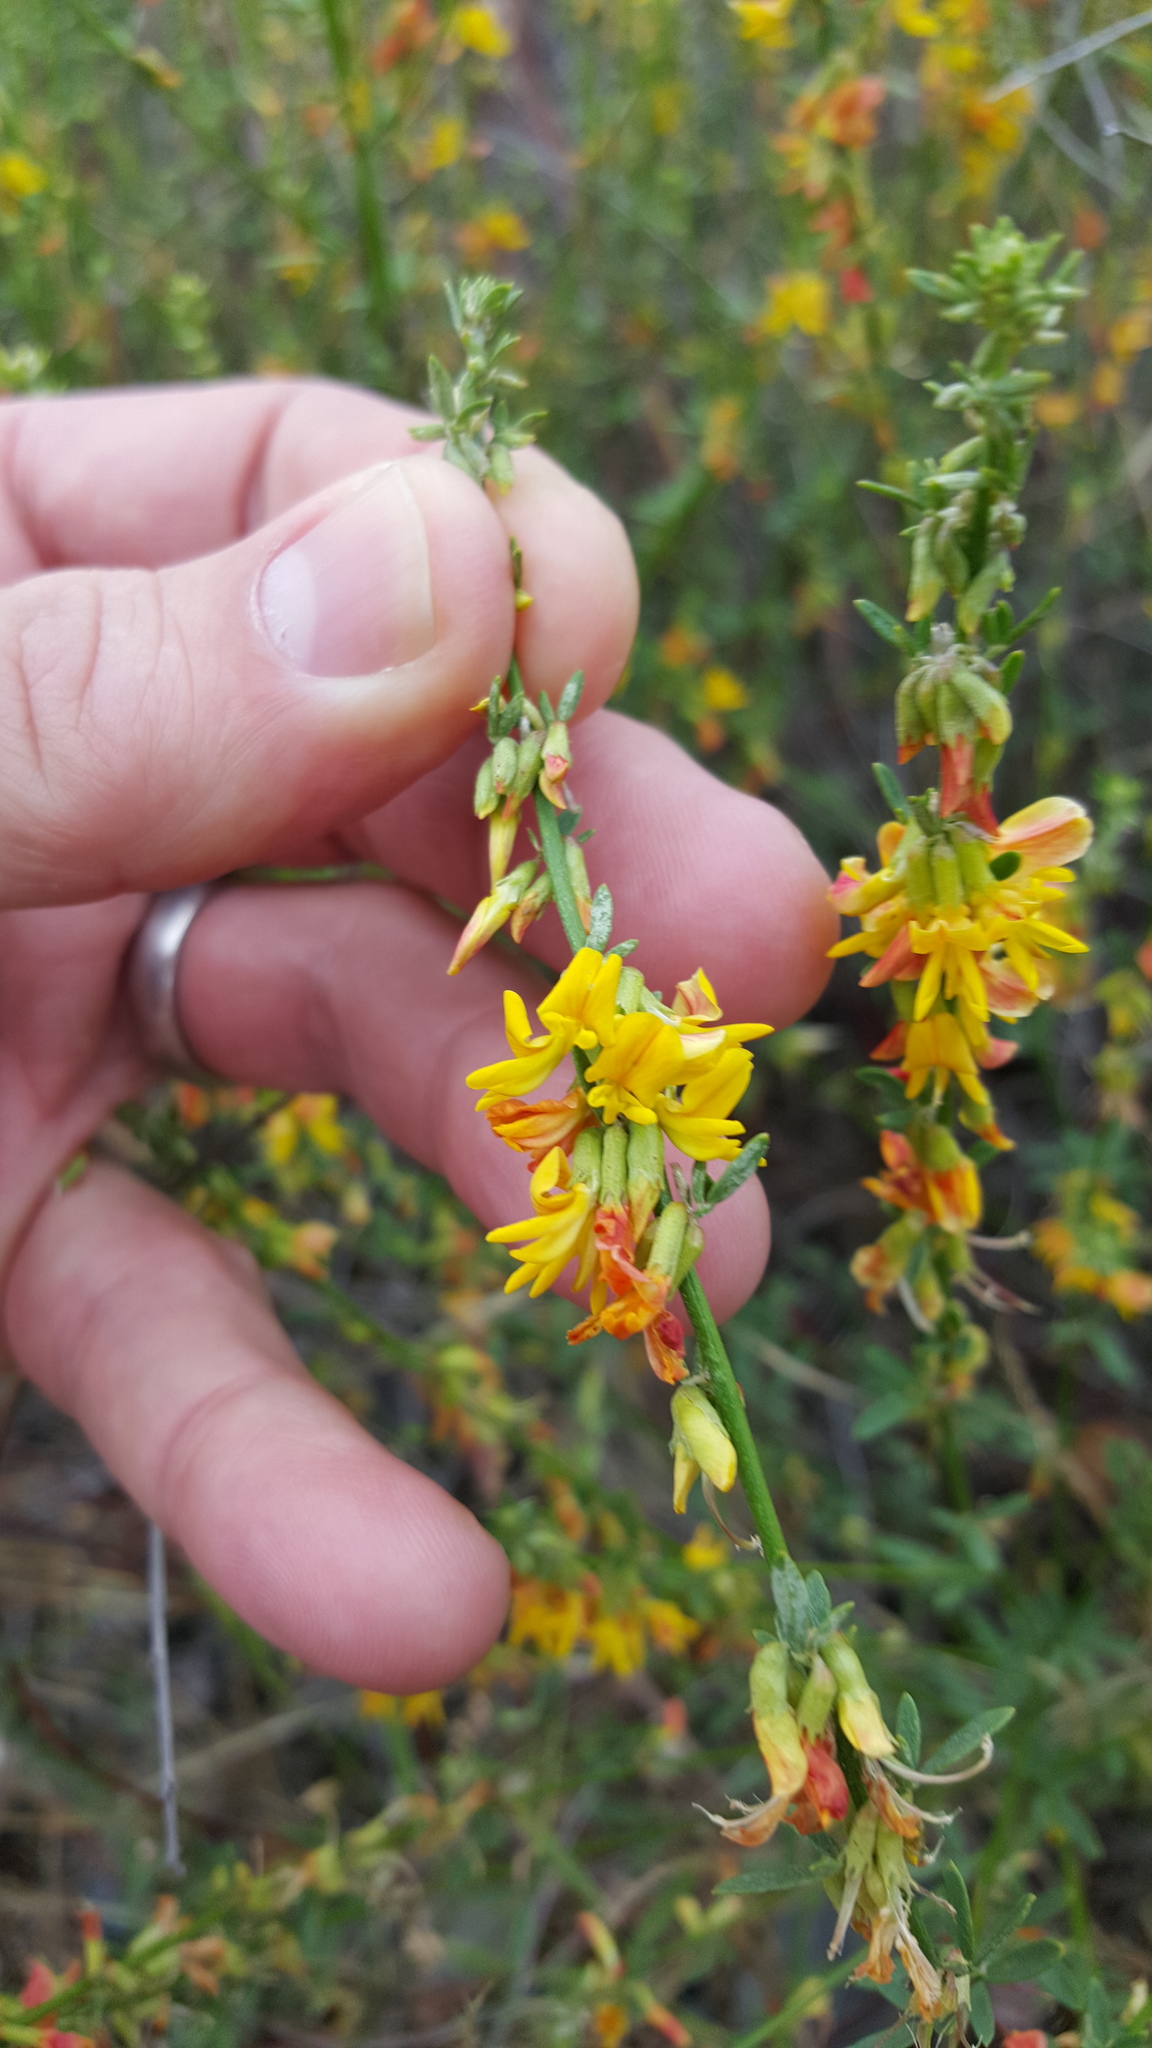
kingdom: Plantae
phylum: Tracheophyta
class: Magnoliopsida
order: Fabales
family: Fabaceae
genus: Acmispon
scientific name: Acmispon glaber
